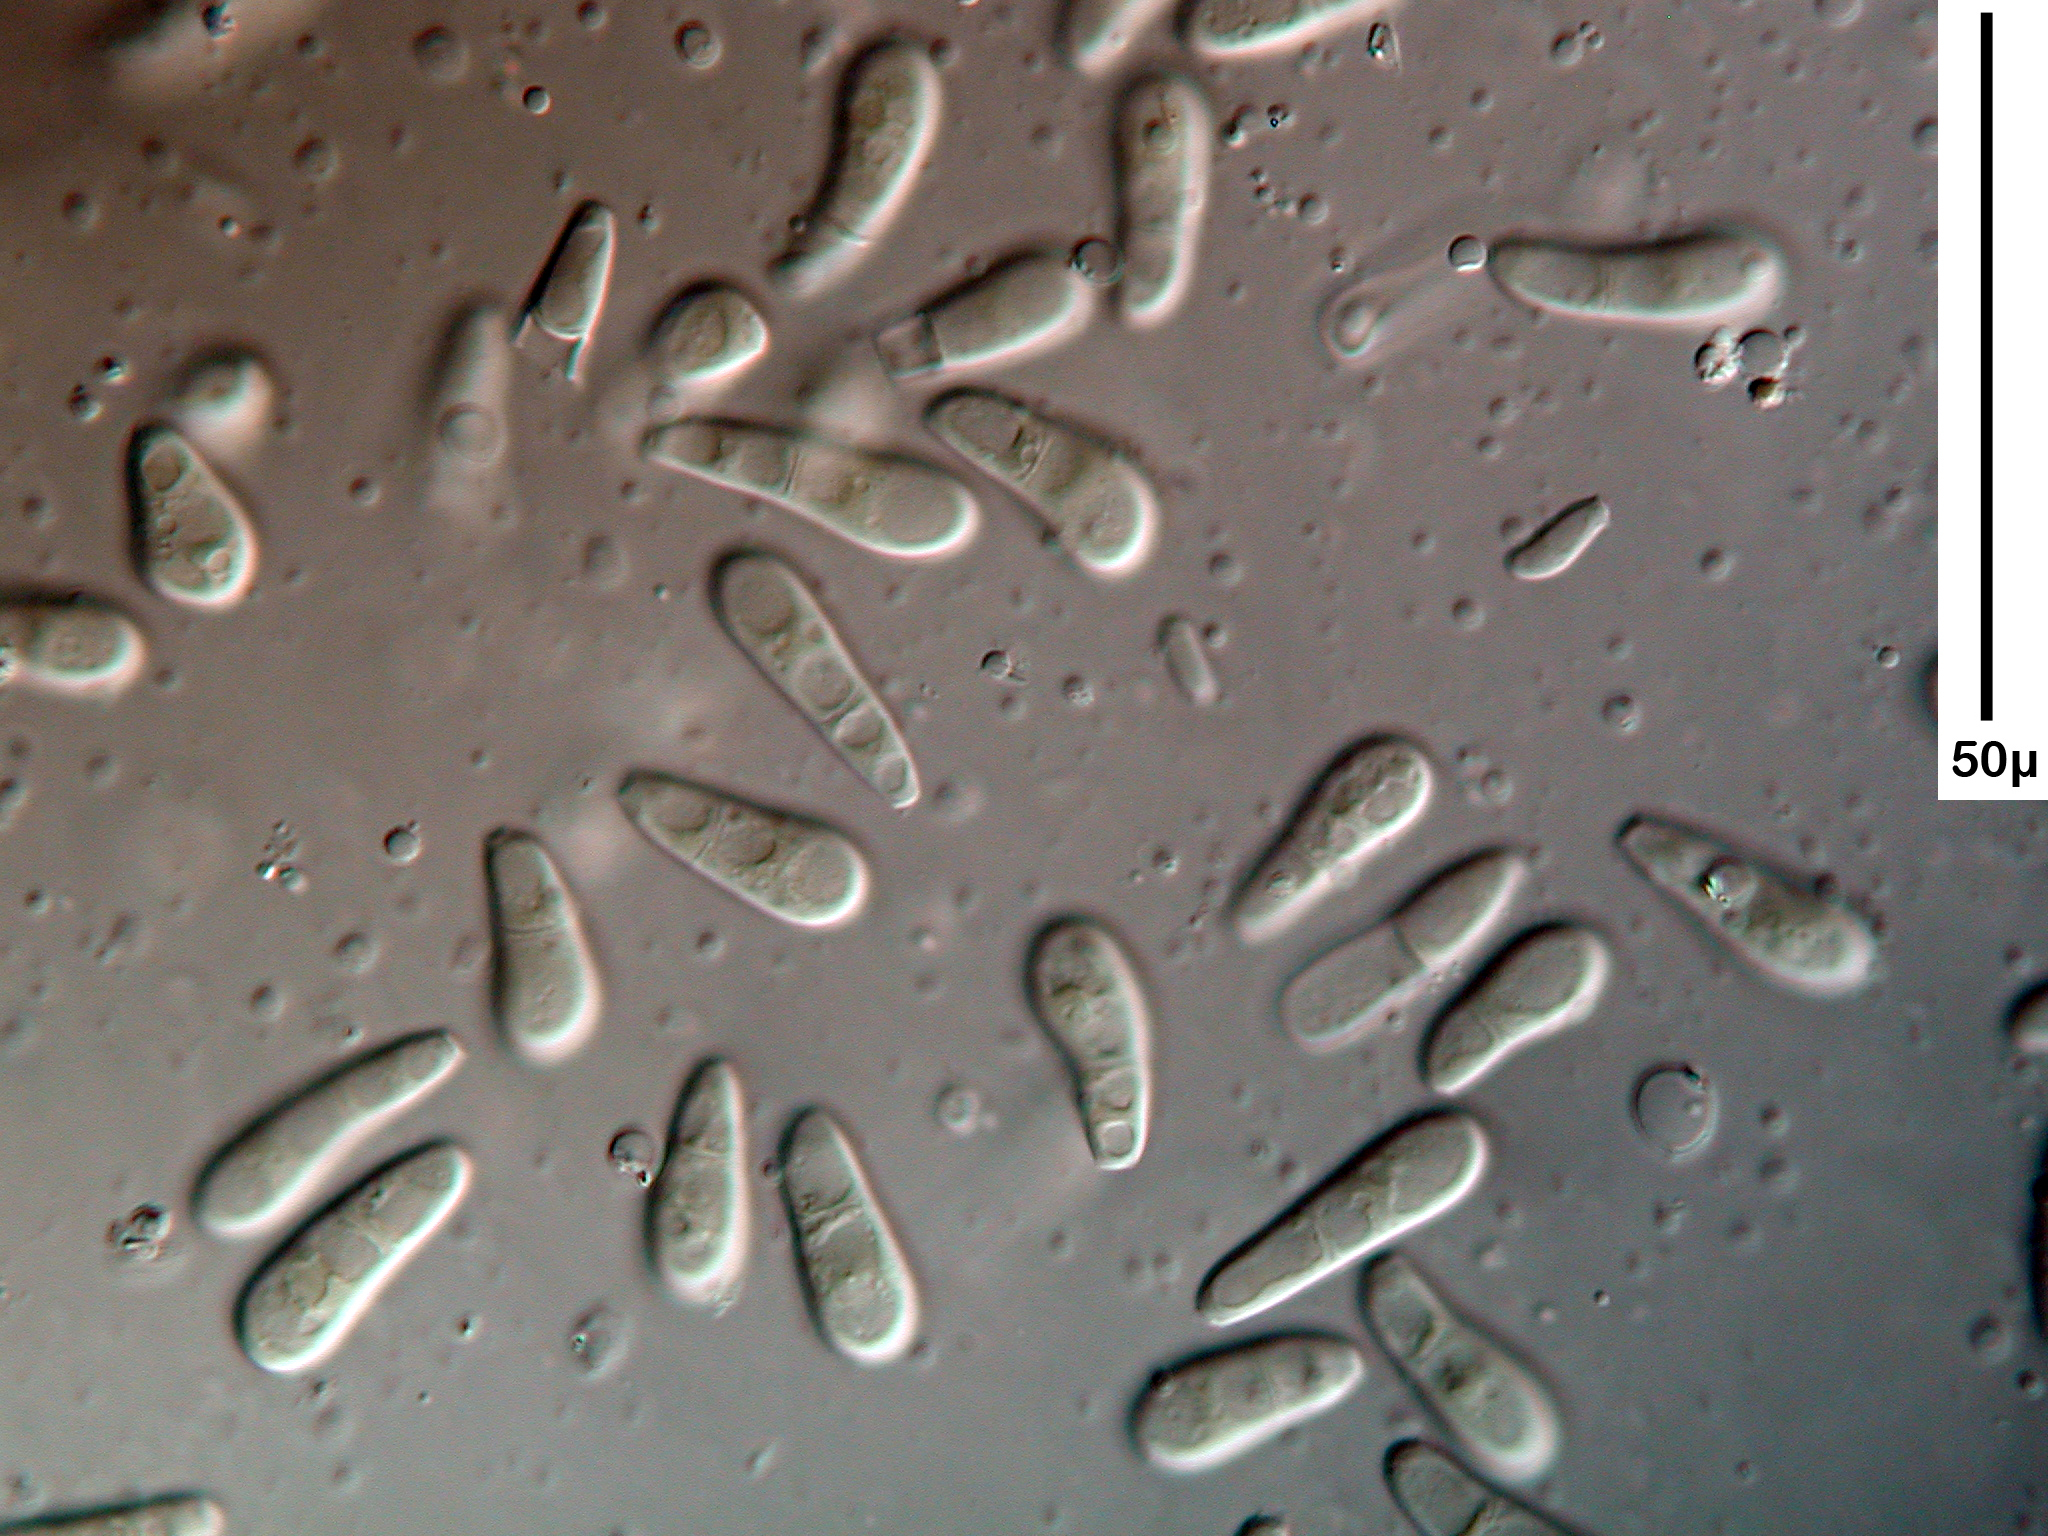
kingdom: Fungi
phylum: Ascomycota
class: Leotiomycetes
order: Helotiales
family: Drepanopezizaceae
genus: Drepanopeziza
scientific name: Drepanopeziza castagnei
